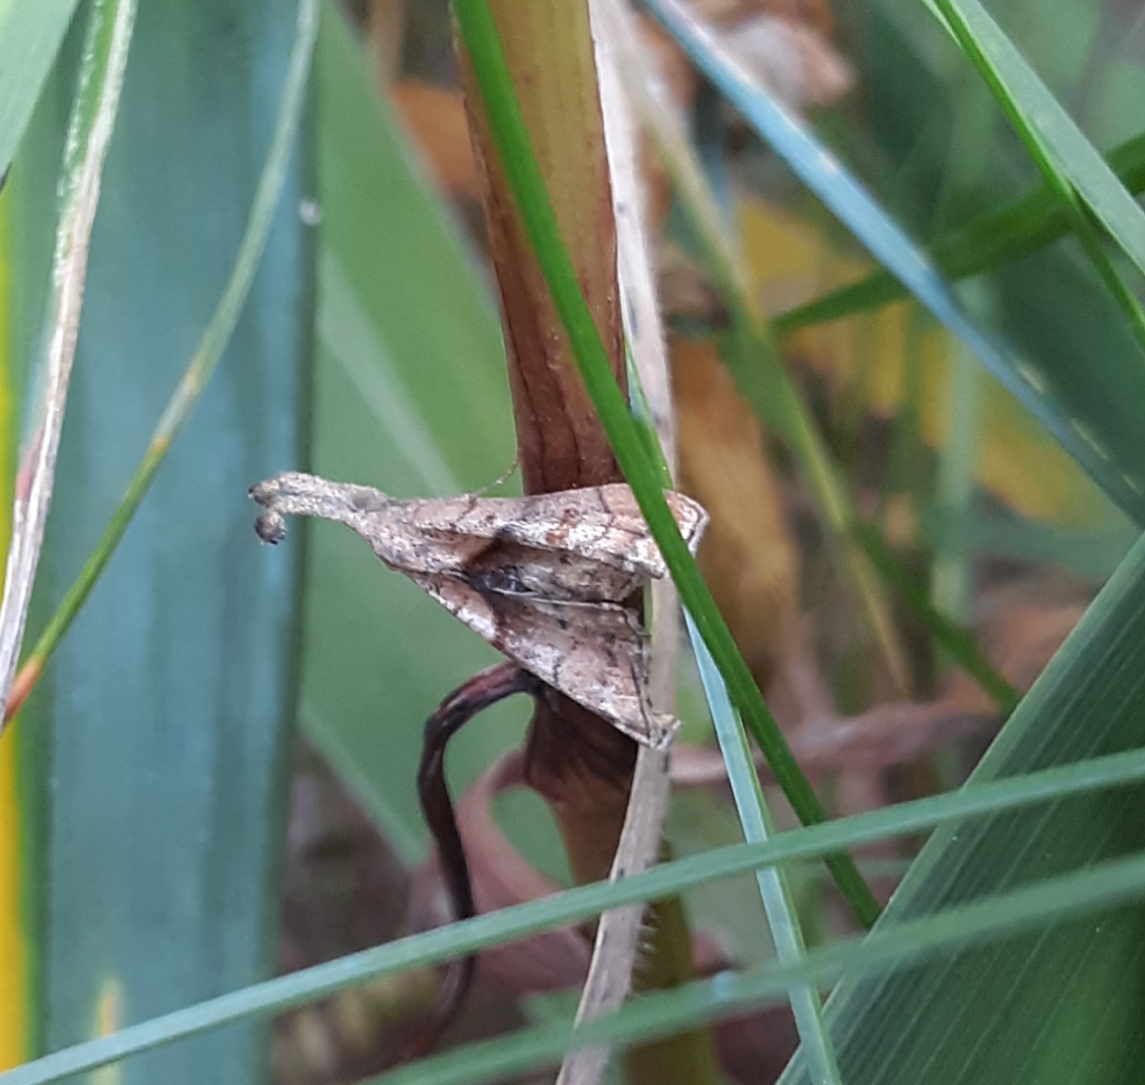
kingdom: Animalia
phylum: Arthropoda
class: Insecta
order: Lepidoptera
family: Erebidae
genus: Palthis
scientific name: Palthis angulalis
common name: Dark-spotted palthis moth
